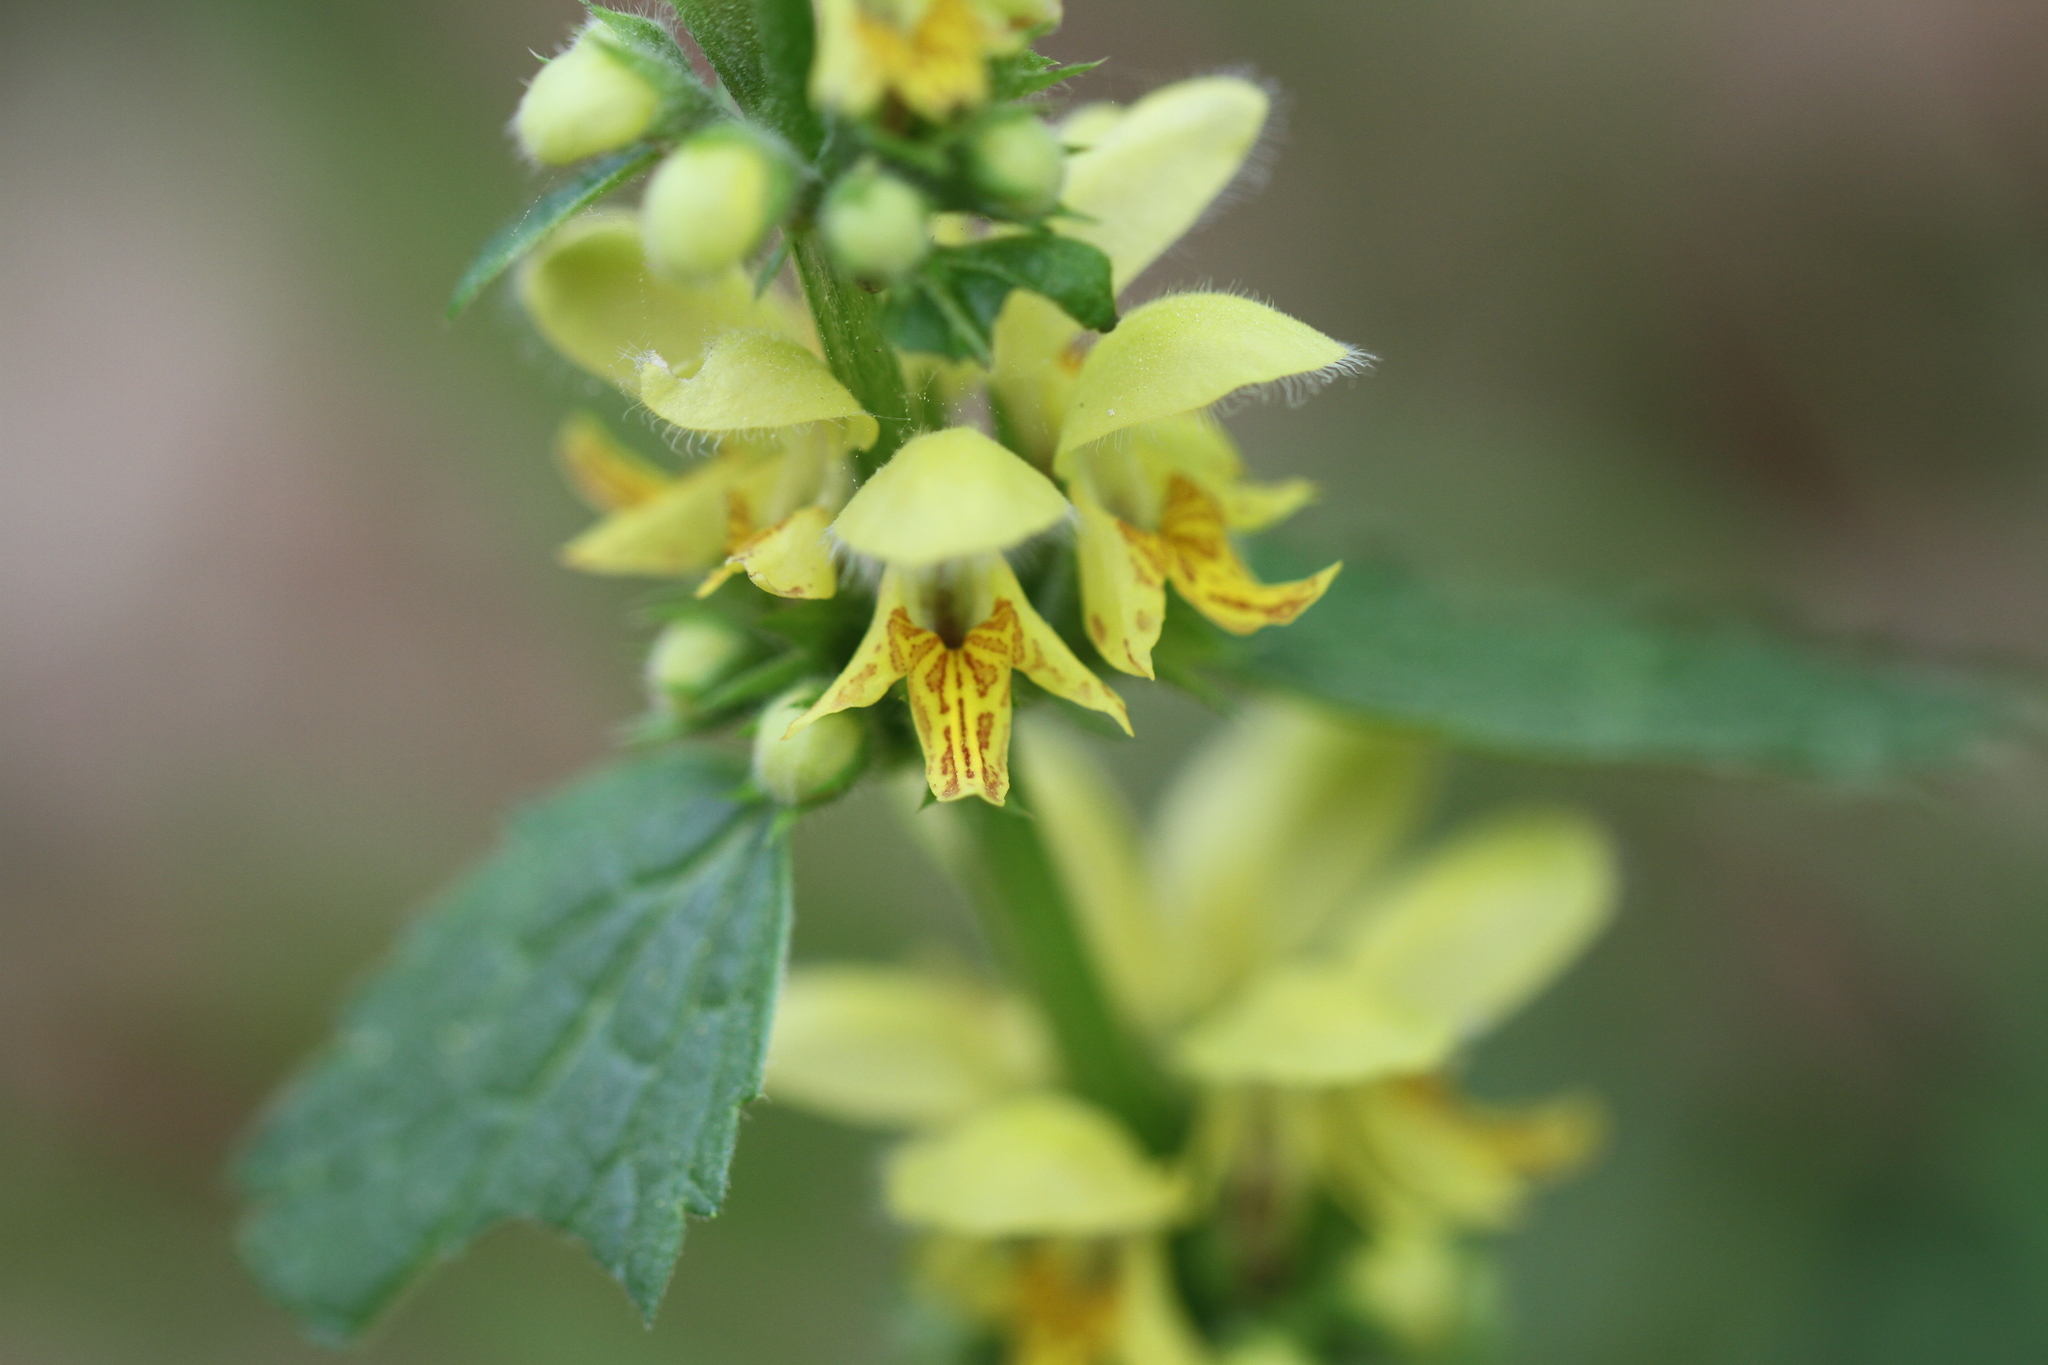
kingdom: Plantae
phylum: Tracheophyta
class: Magnoliopsida
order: Lamiales
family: Lamiaceae
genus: Lamium
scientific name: Lamium galeobdolon
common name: Yellow archangel
